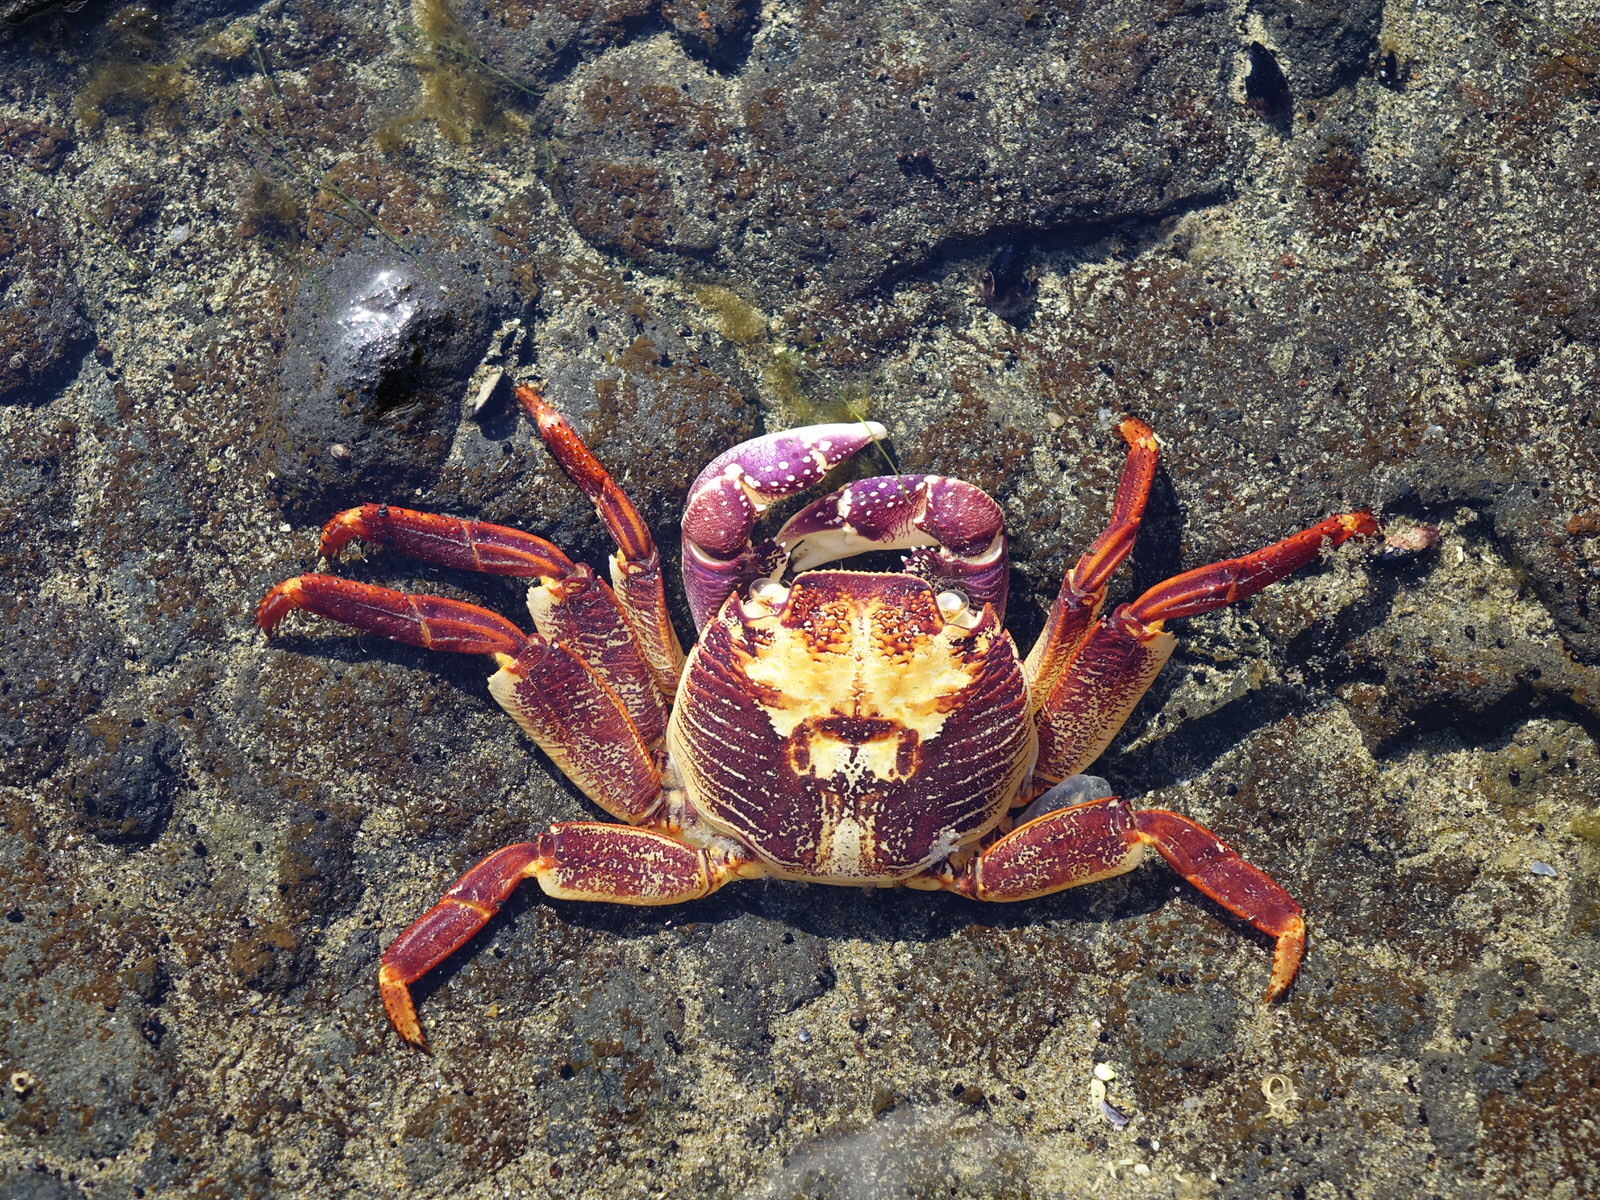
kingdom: Animalia
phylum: Arthropoda
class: Malacostraca
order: Decapoda
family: Grapsidae
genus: Leptograpsus
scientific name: Leptograpsus variegatus
